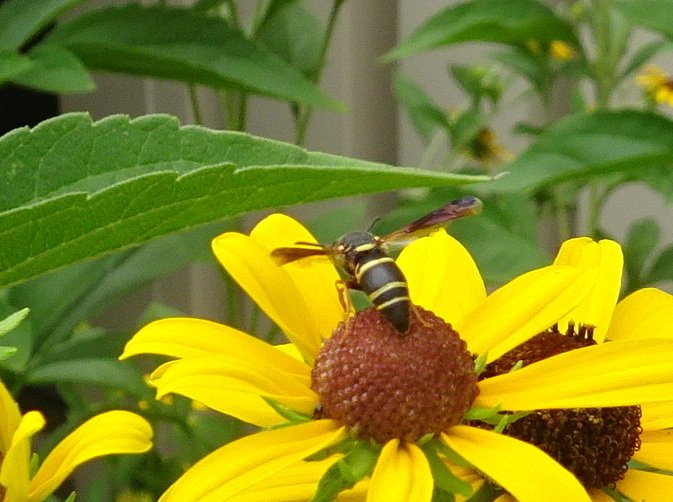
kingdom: Animalia
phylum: Arthropoda
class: Insecta
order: Hymenoptera
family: Eumenidae
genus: Euodynerus
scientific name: Euodynerus hidalgo
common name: Wasp
